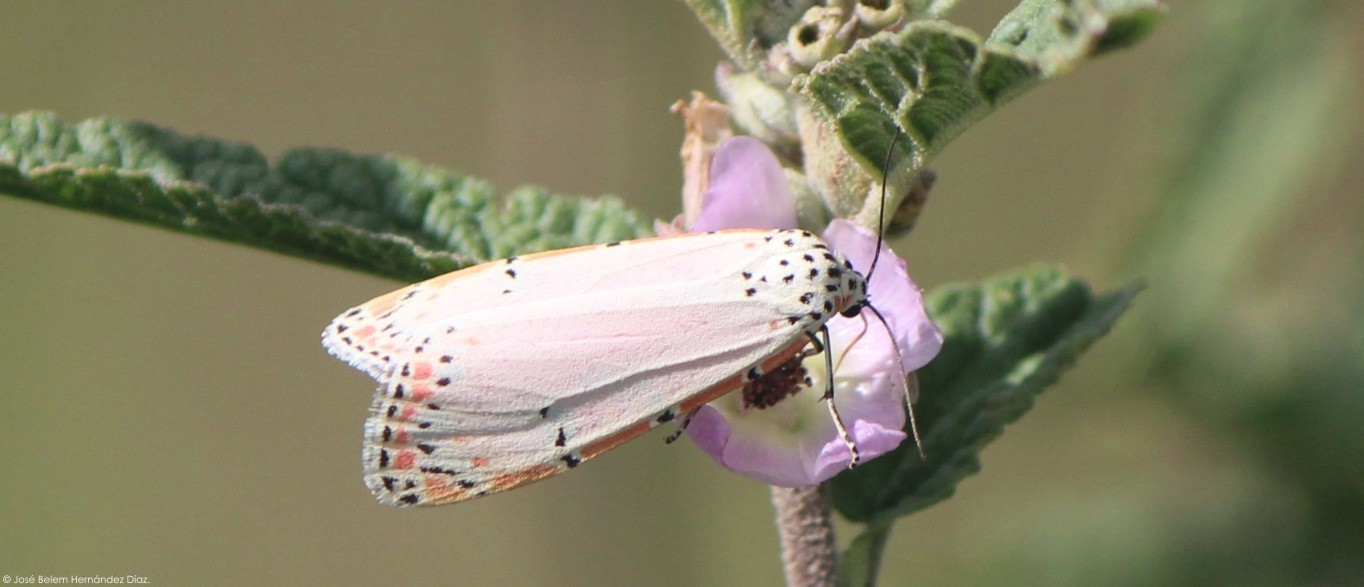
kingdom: Animalia
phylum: Arthropoda
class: Insecta
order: Lepidoptera
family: Erebidae
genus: Utetheisa
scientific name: Utetheisa ornatrix
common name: Beautiful utetheisa
